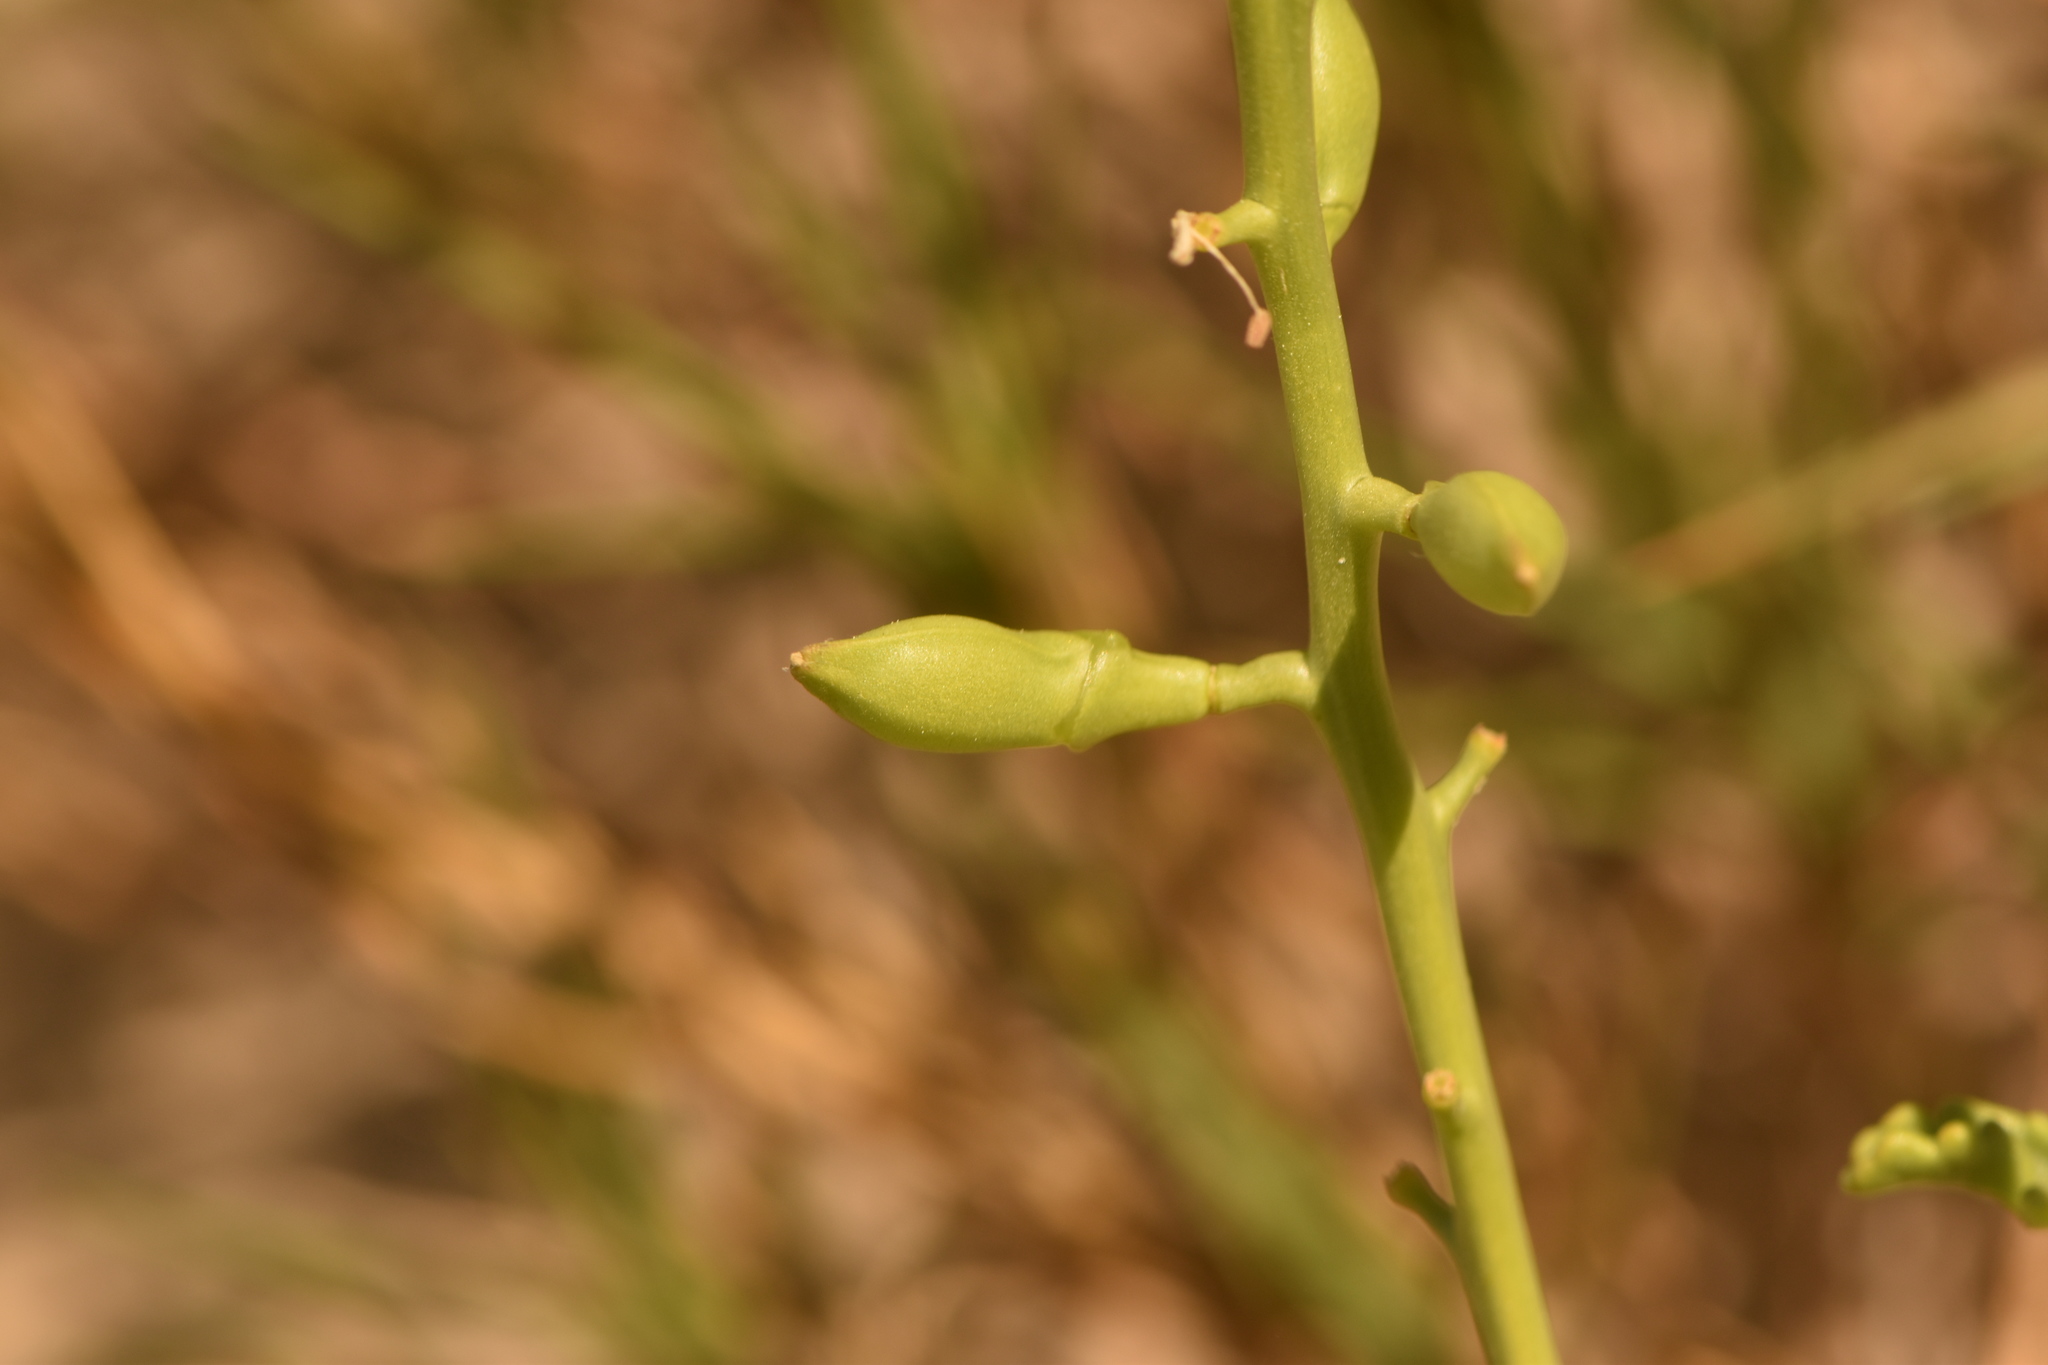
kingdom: Plantae
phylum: Tracheophyta
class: Magnoliopsida
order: Brassicales
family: Brassicaceae
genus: Cakile
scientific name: Cakile maritima
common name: Sea rocket
